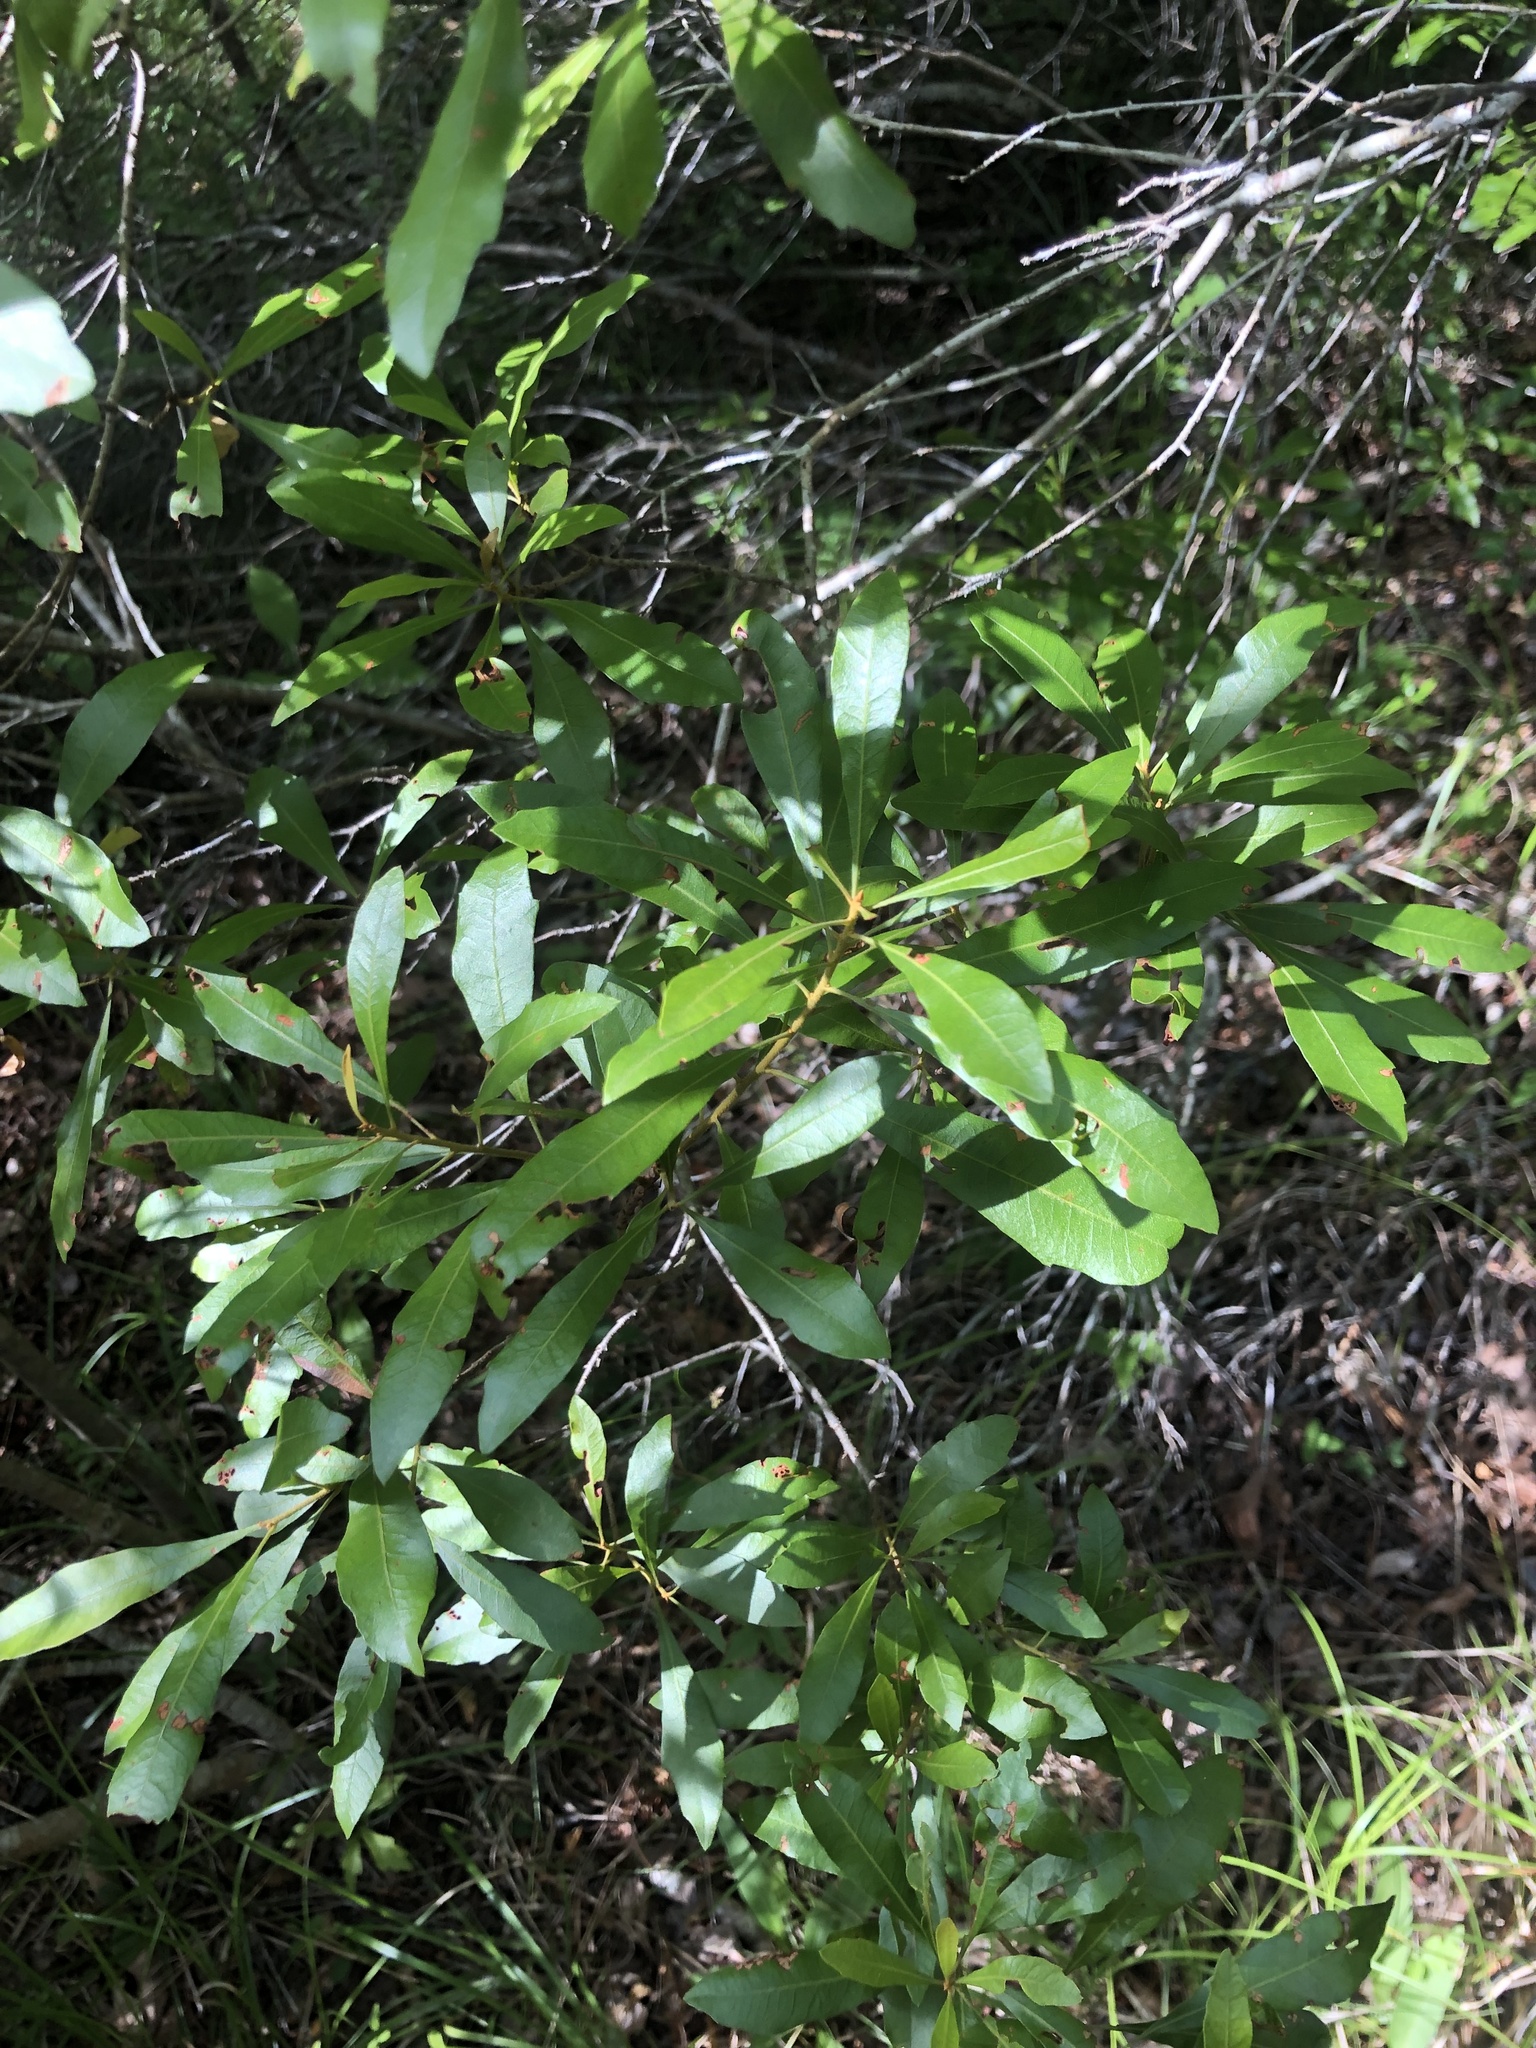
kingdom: Plantae
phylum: Tracheophyta
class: Magnoliopsida
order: Fagales
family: Myricaceae
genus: Morella
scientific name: Morella cerifera
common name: Wax myrtle
